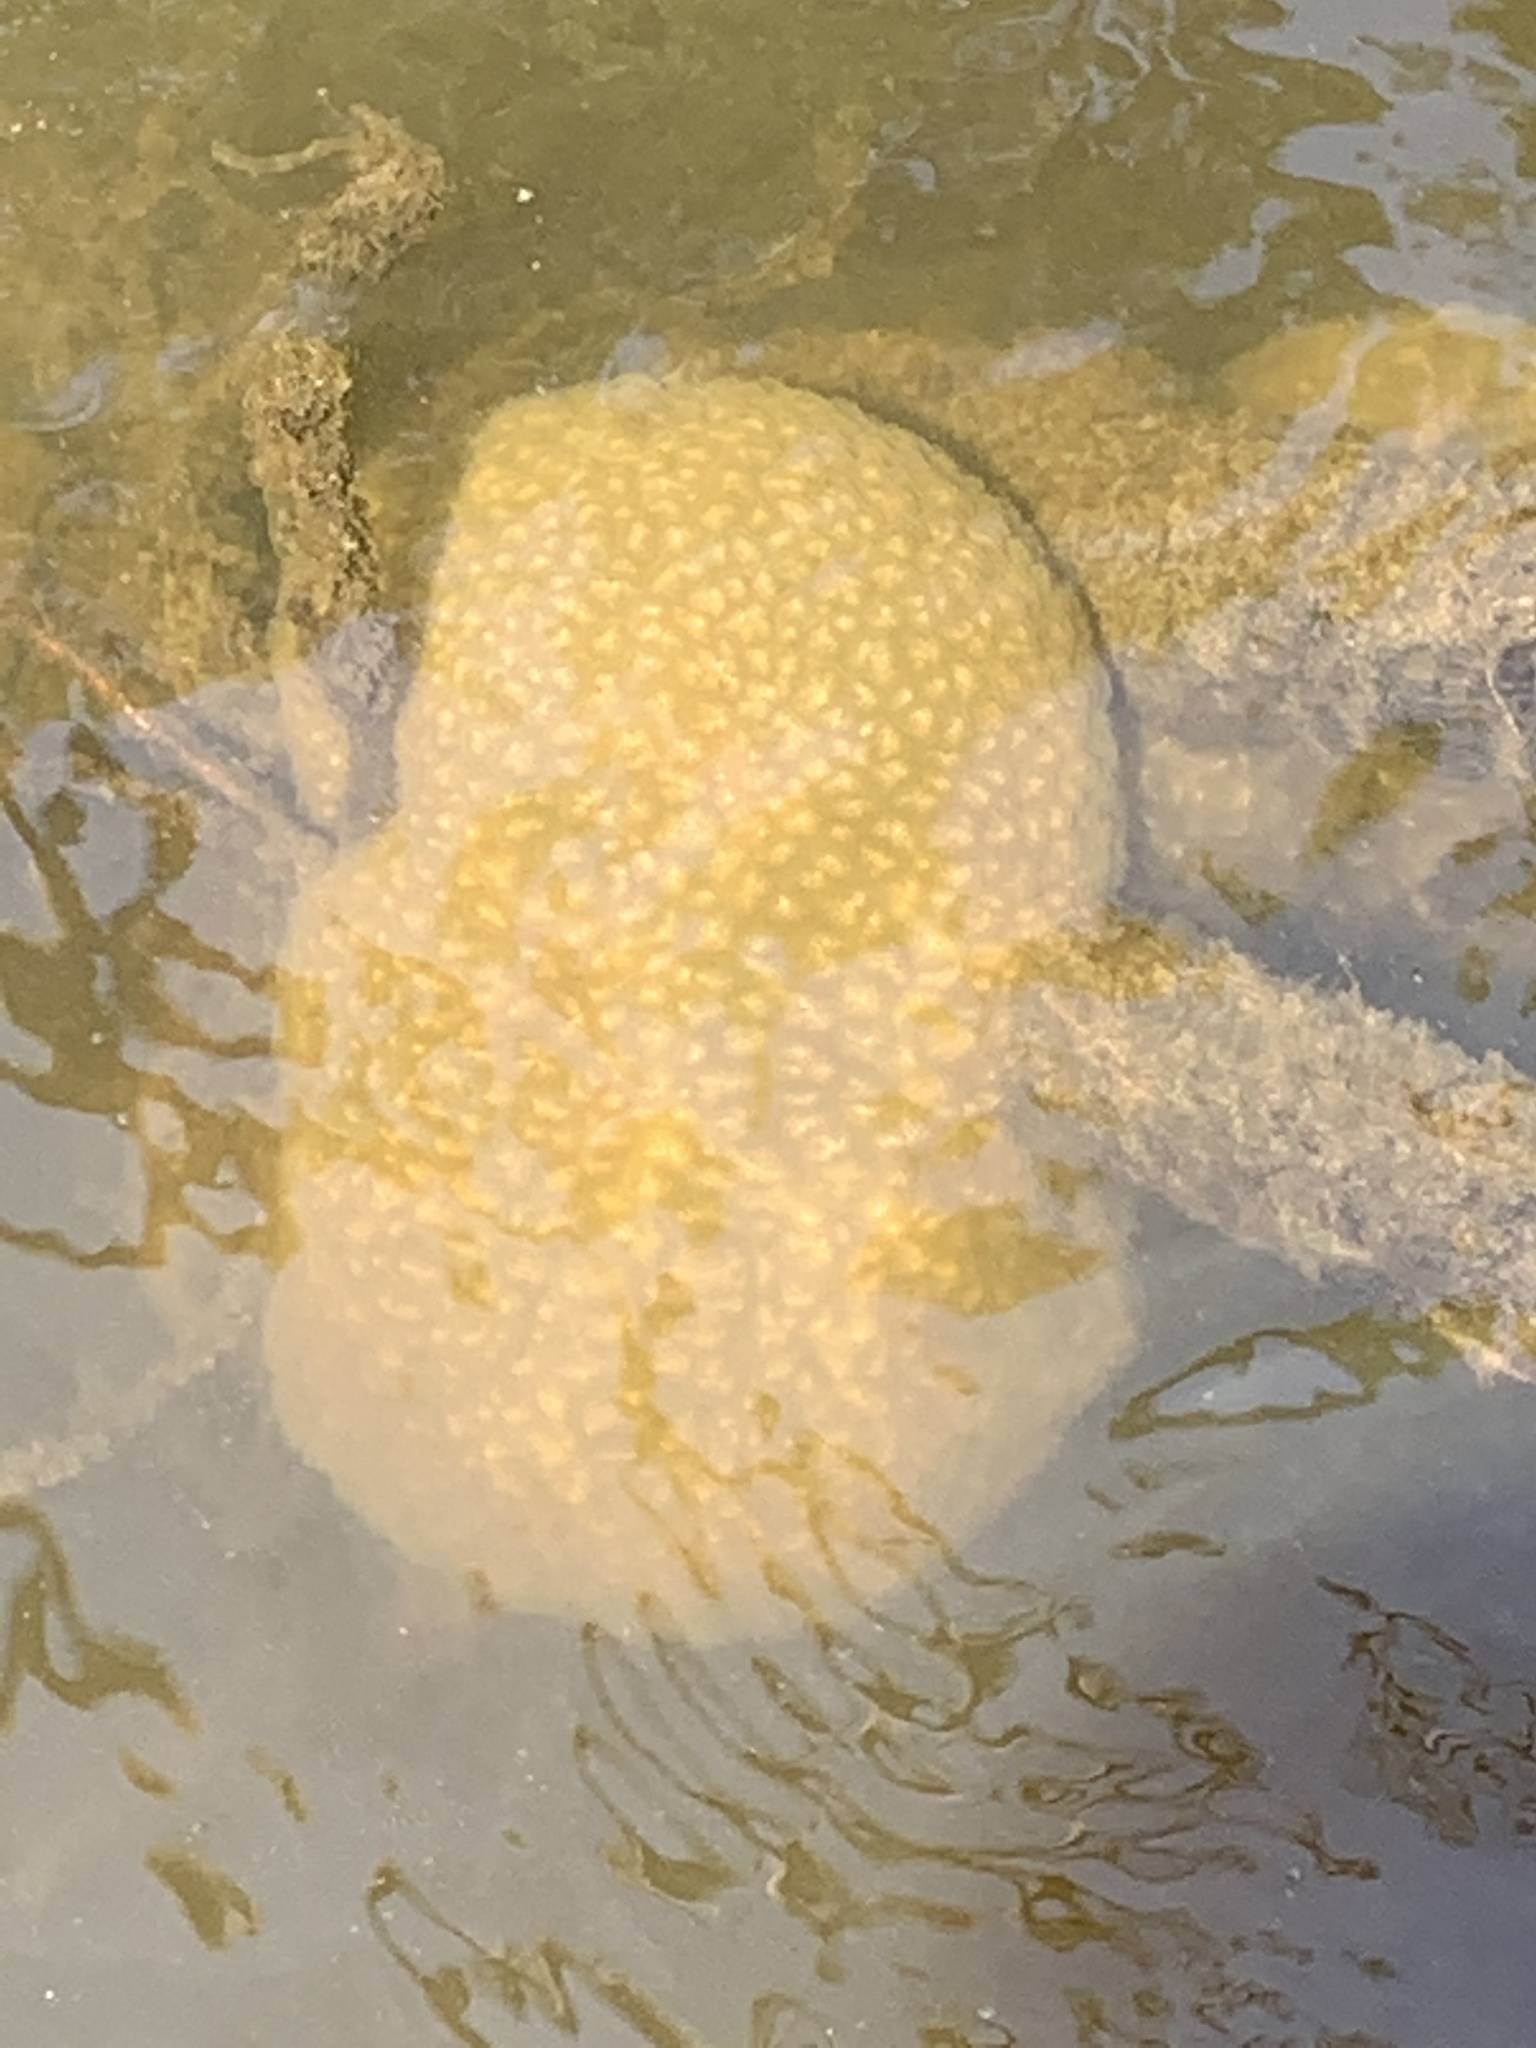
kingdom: Animalia
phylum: Bryozoa
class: Phylactolaemata
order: Plumatellida
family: Pectinatellidae
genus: Pectinatella
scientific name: Pectinatella magnifica
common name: Magnificent bryozoan
